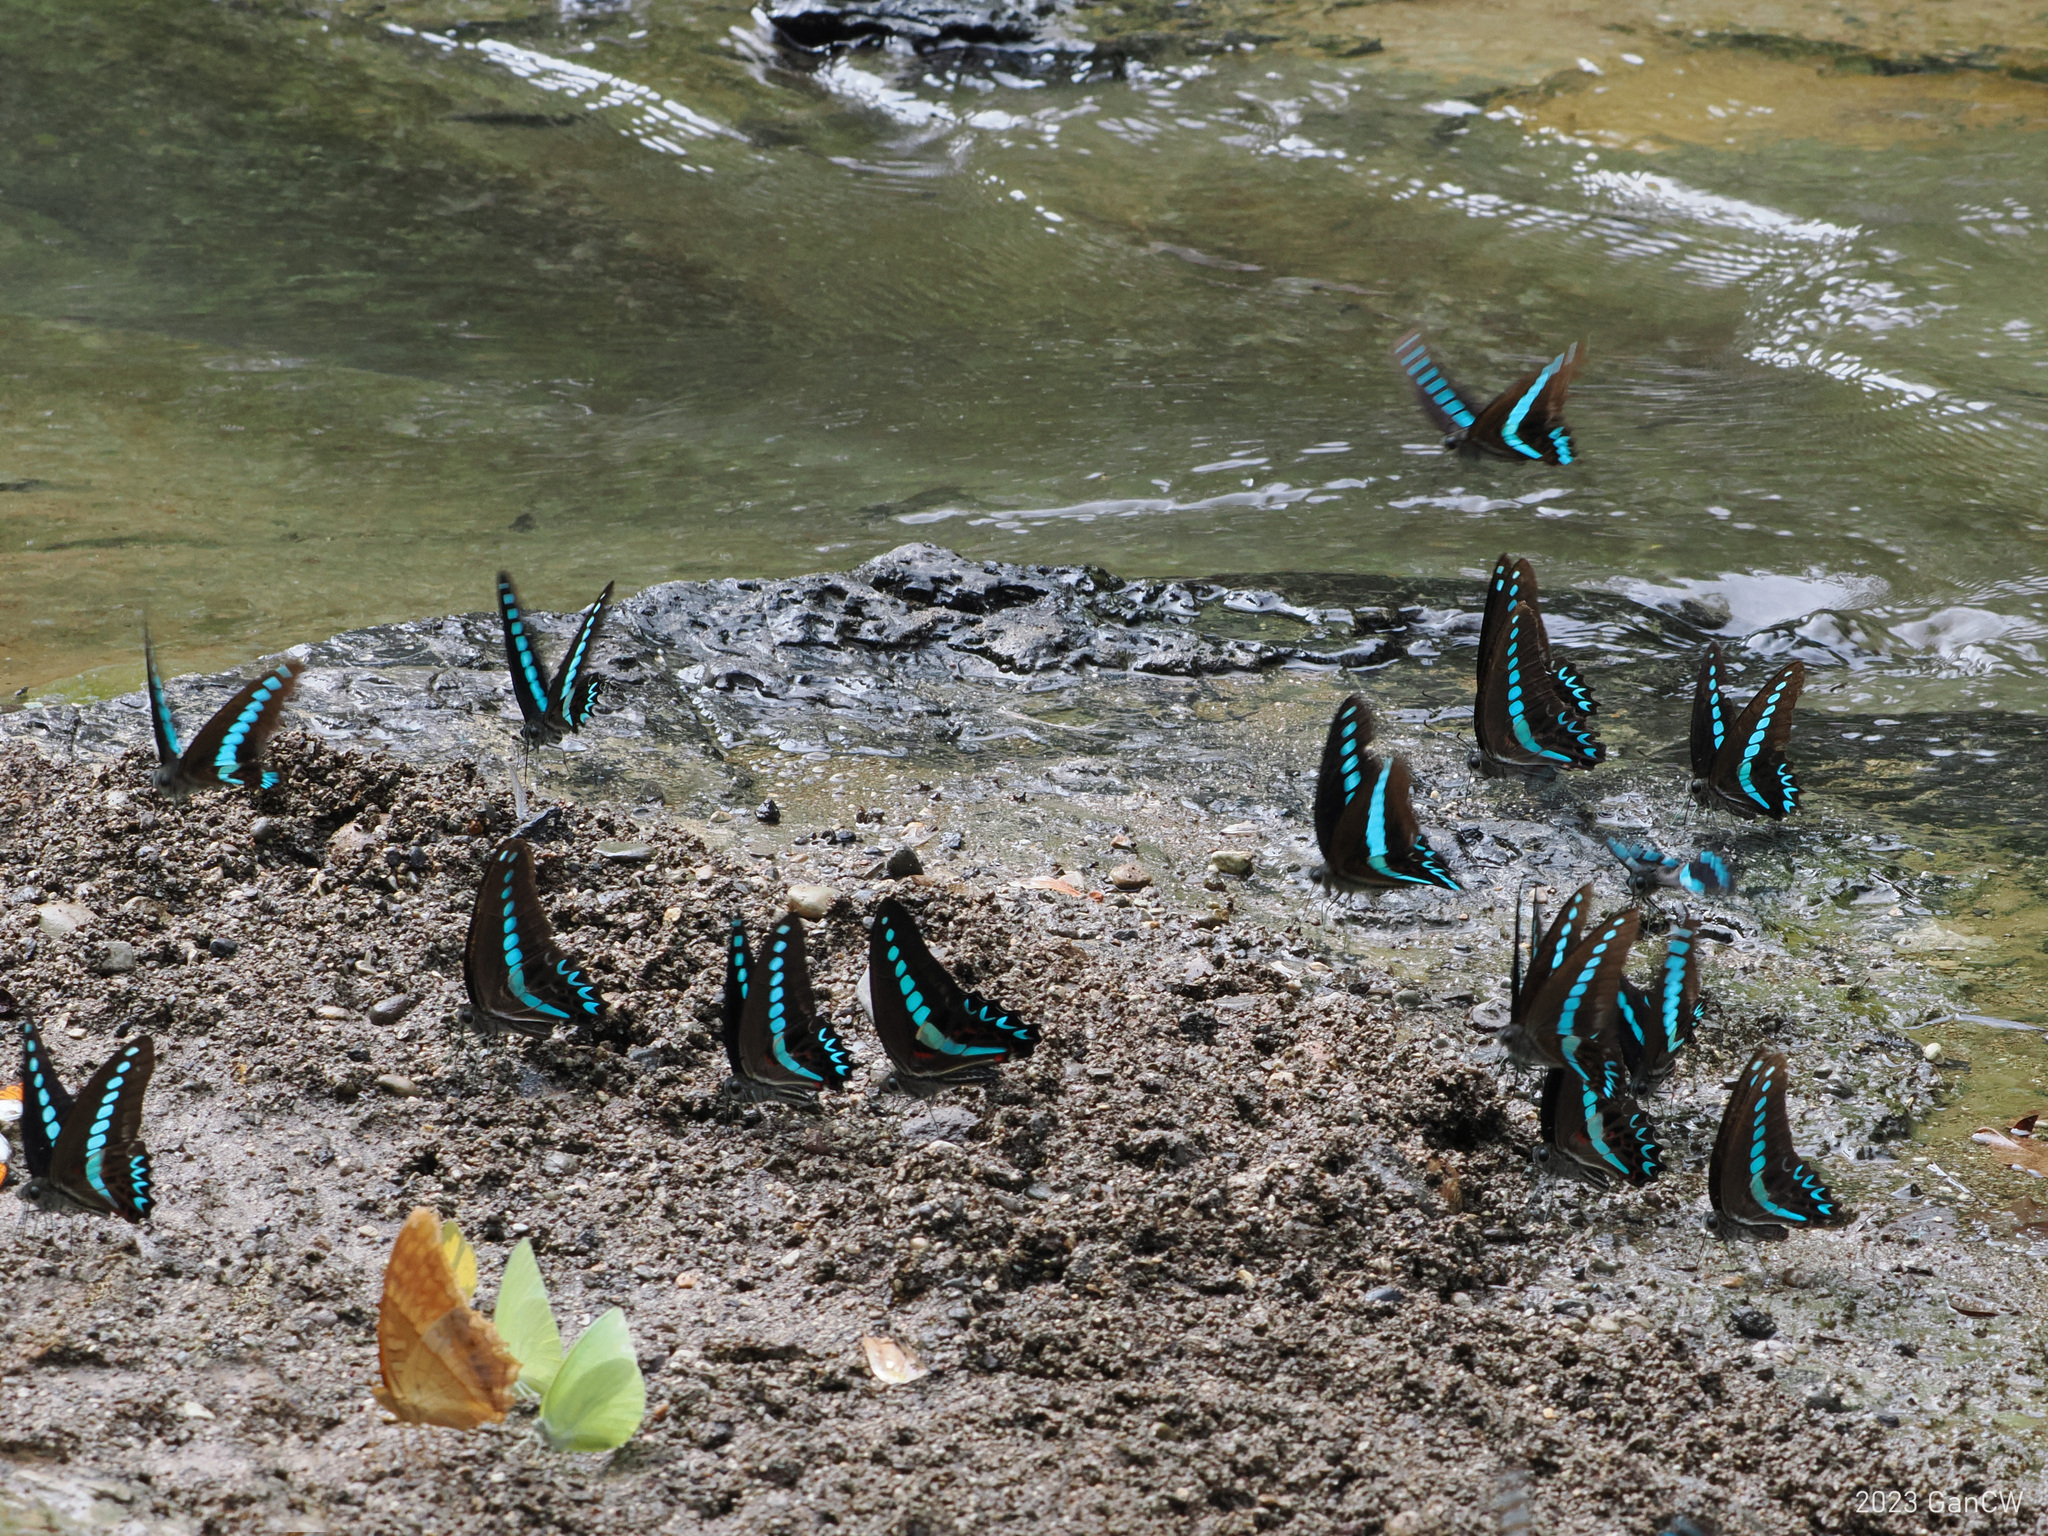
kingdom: Animalia
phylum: Arthropoda
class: Insecta
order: Lepidoptera
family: Papilionidae
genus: Graphium
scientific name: Graphium milon
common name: Milon's swallowtail
